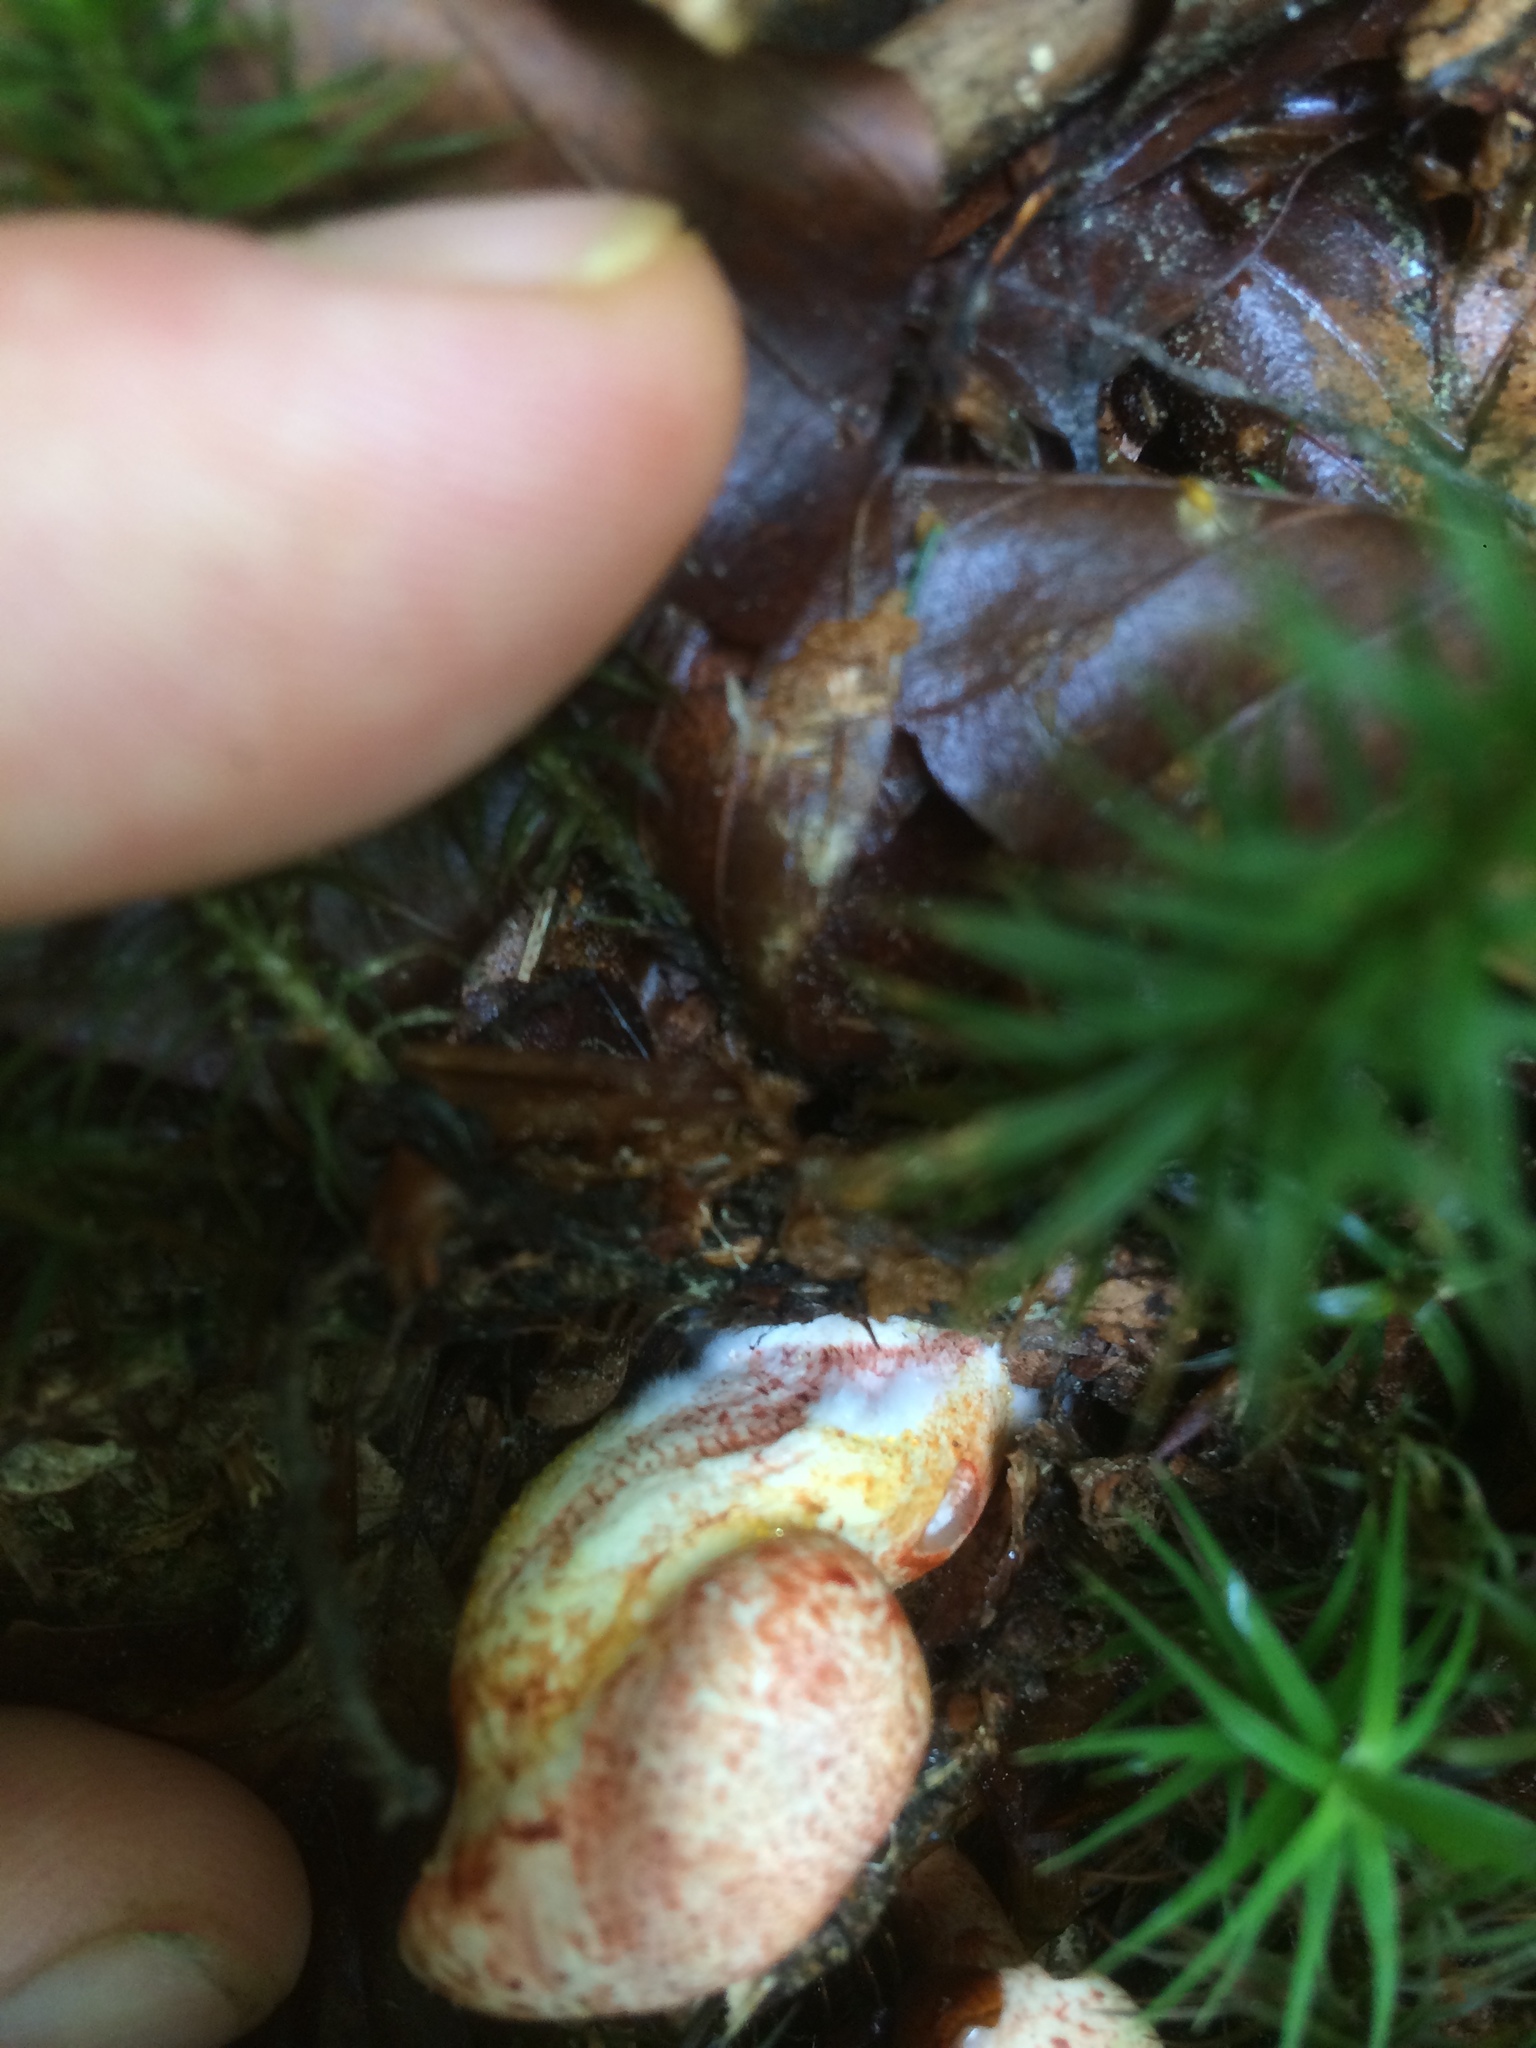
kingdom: Fungi
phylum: Basidiomycota
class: Agaricomycetes
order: Agaricales
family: Cortinariaceae
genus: Cortinarius
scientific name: Cortinarius bolaris
